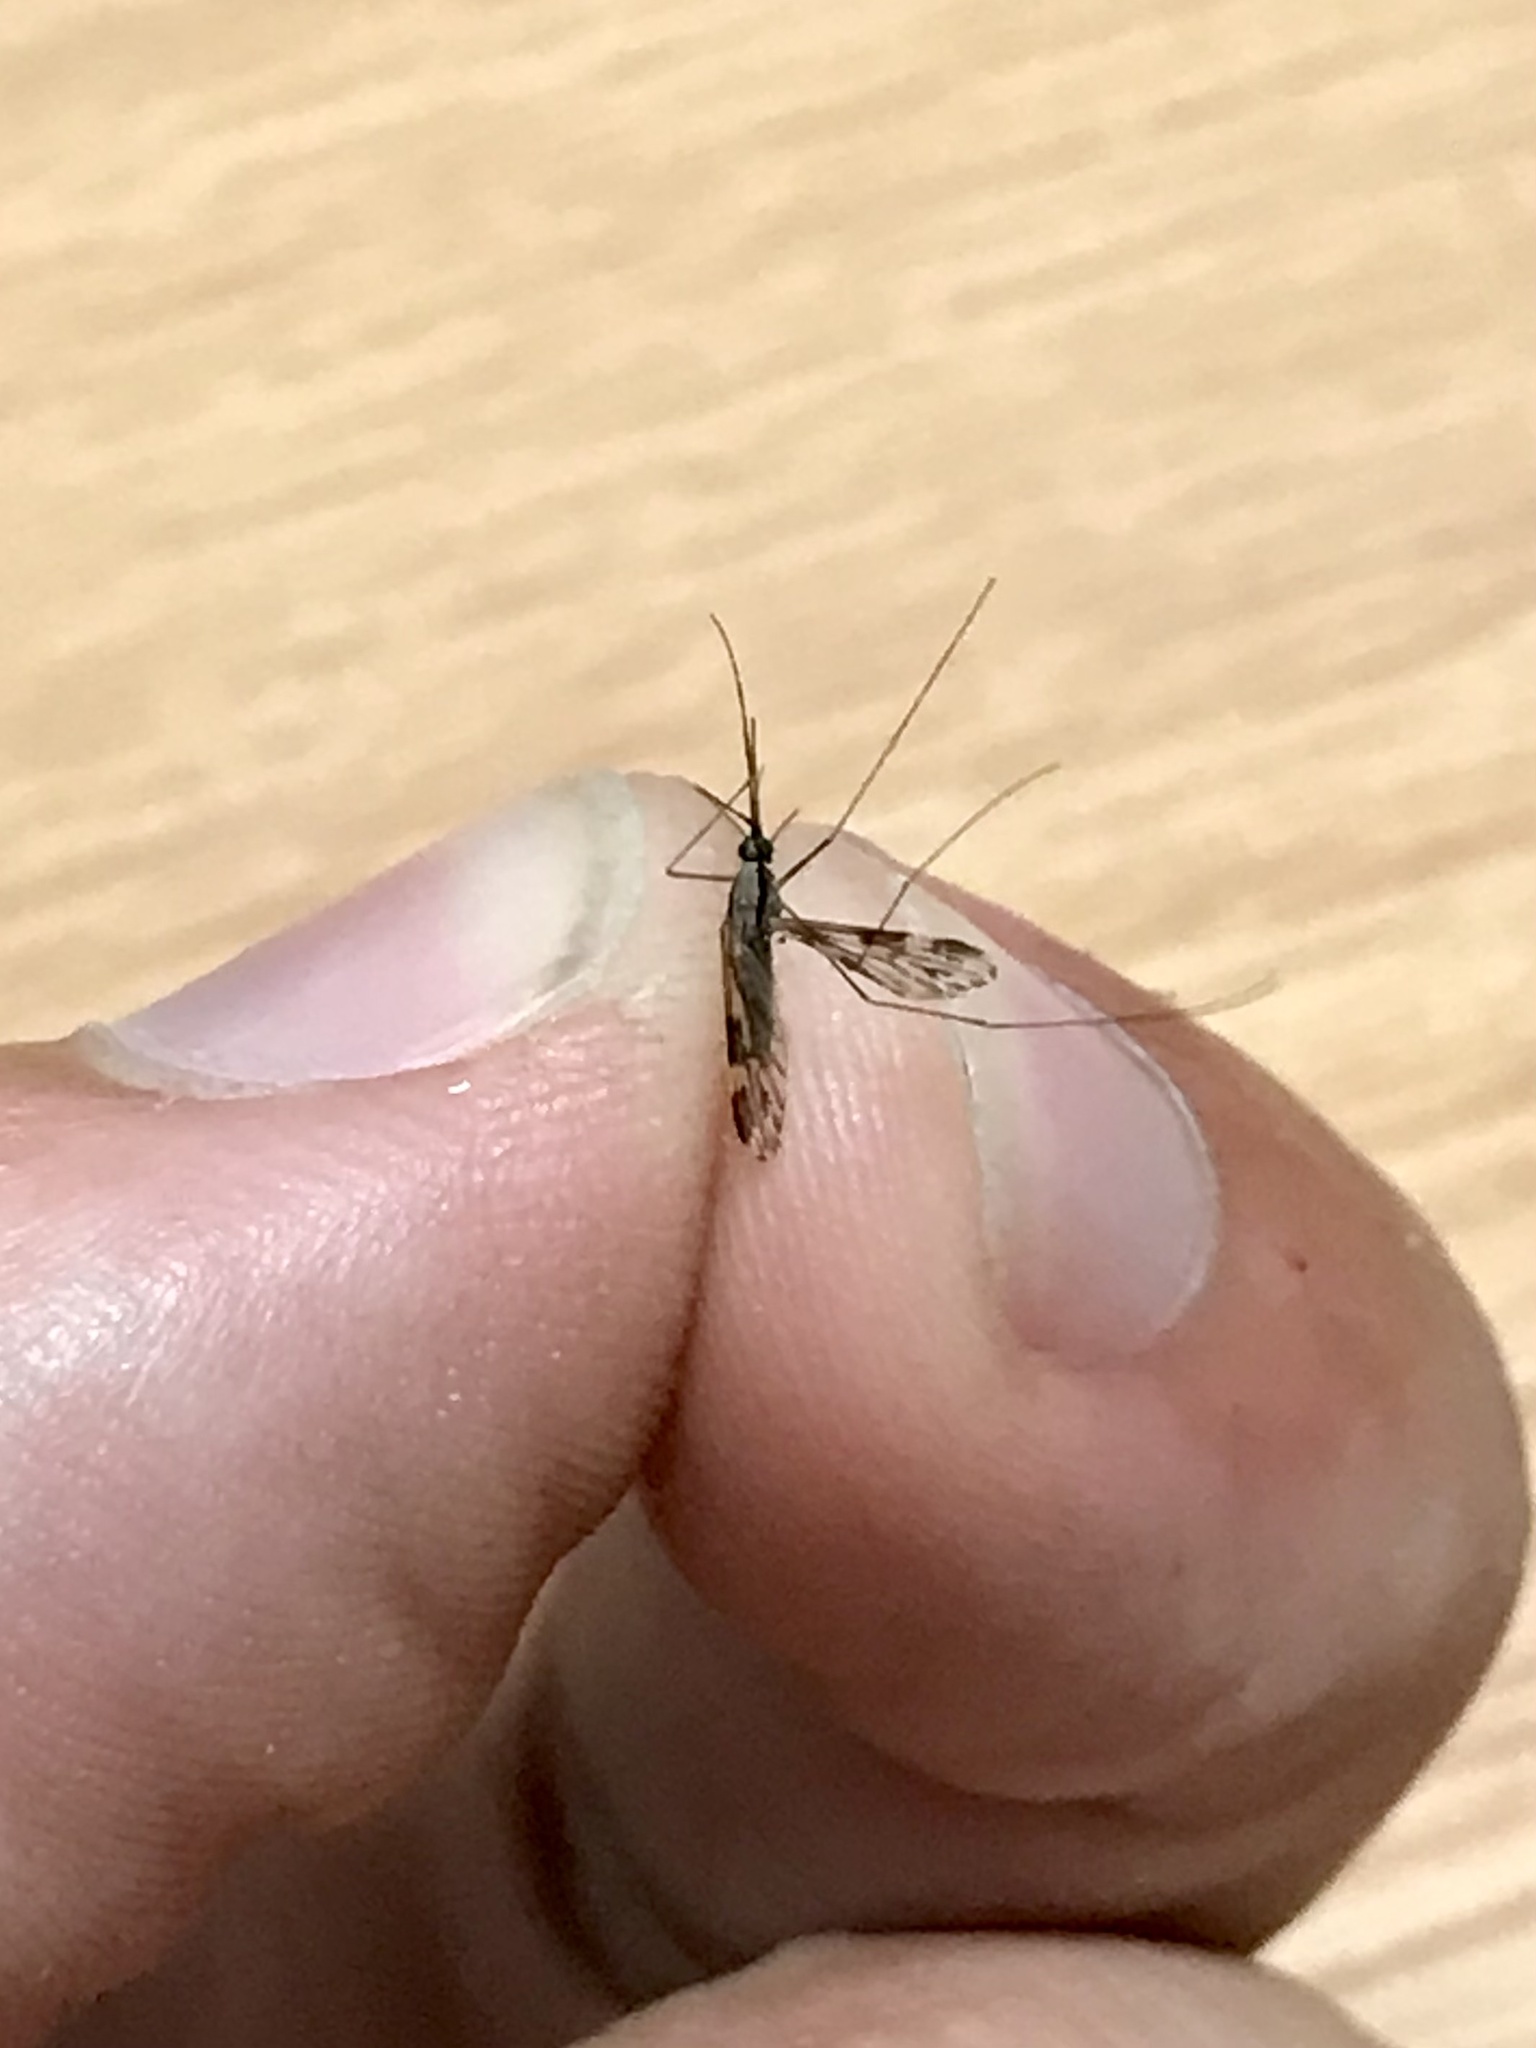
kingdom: Animalia
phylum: Arthropoda
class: Insecta
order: Diptera
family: Culicidae
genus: Anopheles
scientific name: Anopheles punctipennis
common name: Woodland malaria mosquito
